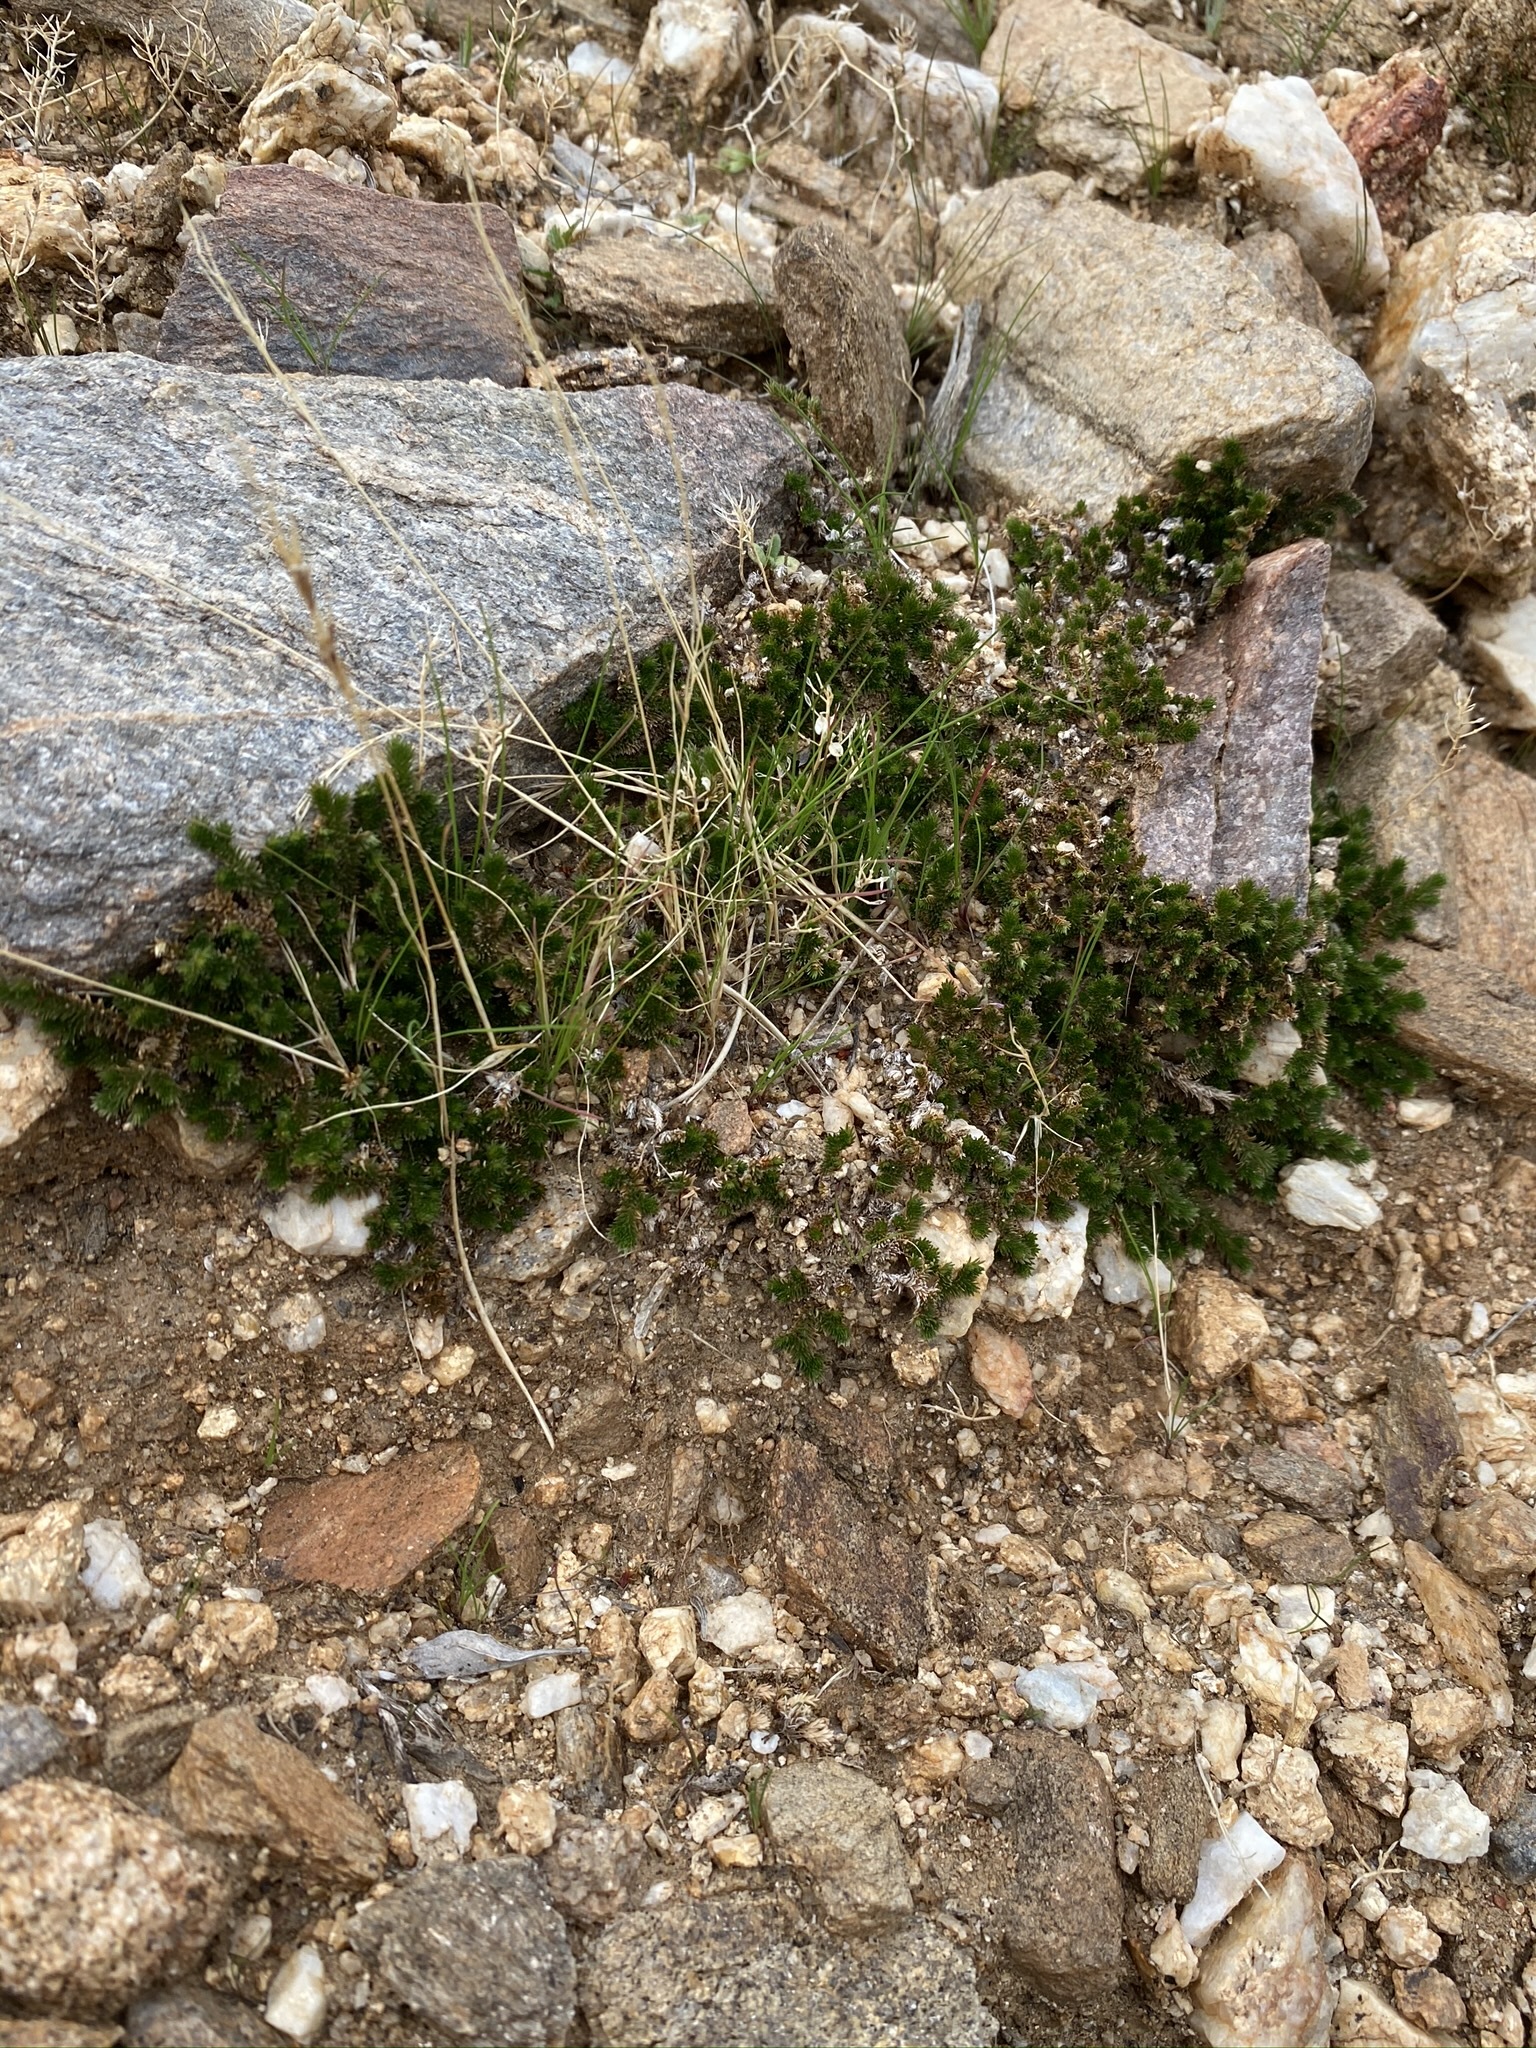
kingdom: Plantae
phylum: Tracheophyta
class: Lycopodiopsida
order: Selaginellales
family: Selaginellaceae
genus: Selaginella
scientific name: Selaginella eremophila
